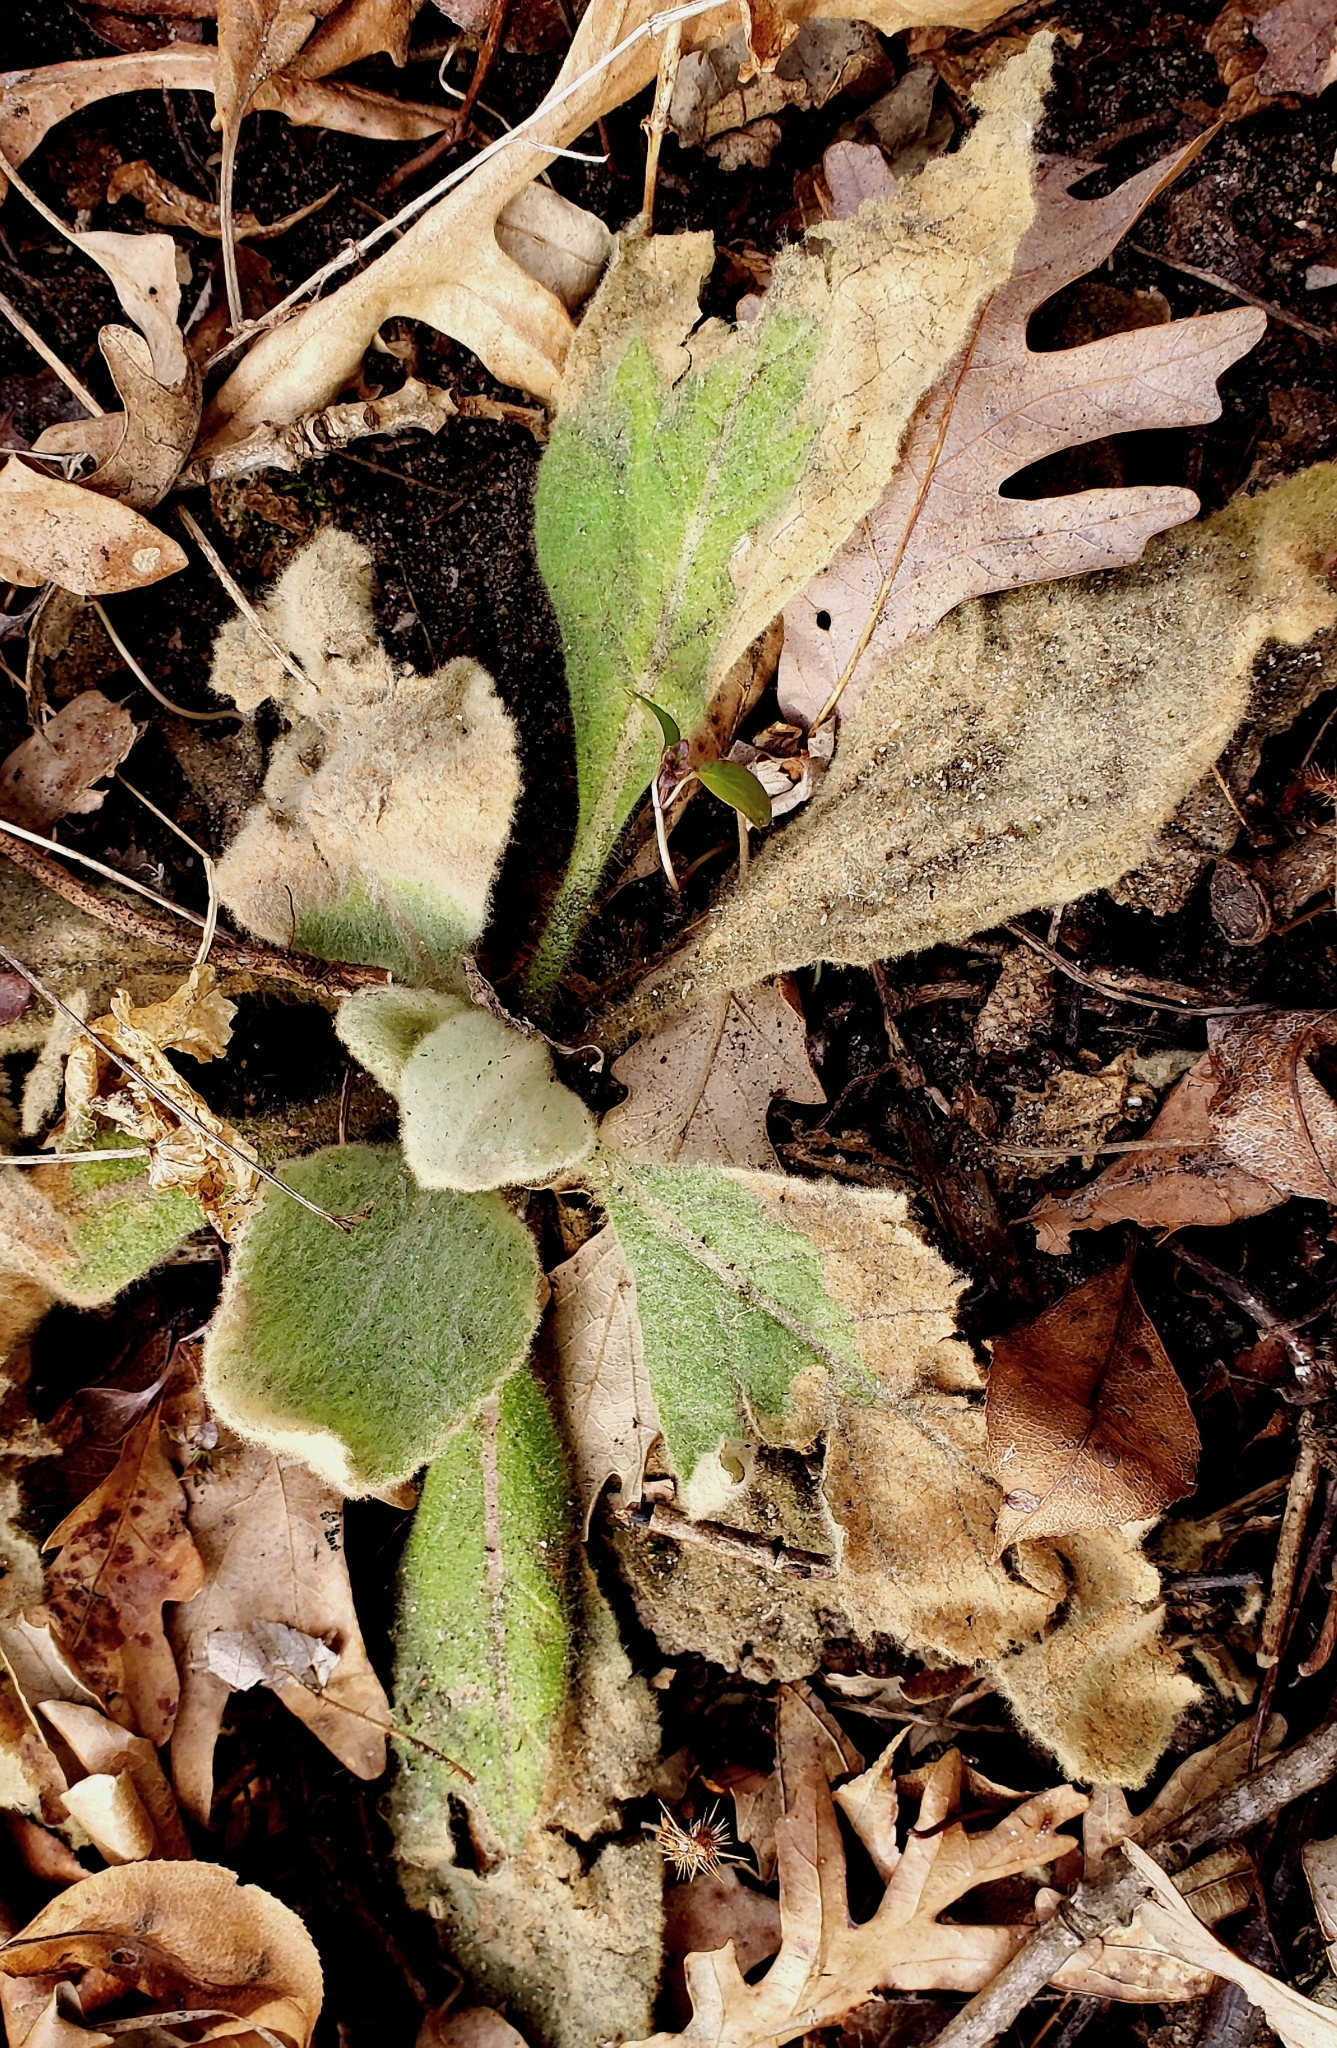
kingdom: Plantae
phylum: Tracheophyta
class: Magnoliopsida
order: Lamiales
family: Scrophulariaceae
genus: Verbascum
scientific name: Verbascum thapsus
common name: Common mullein
